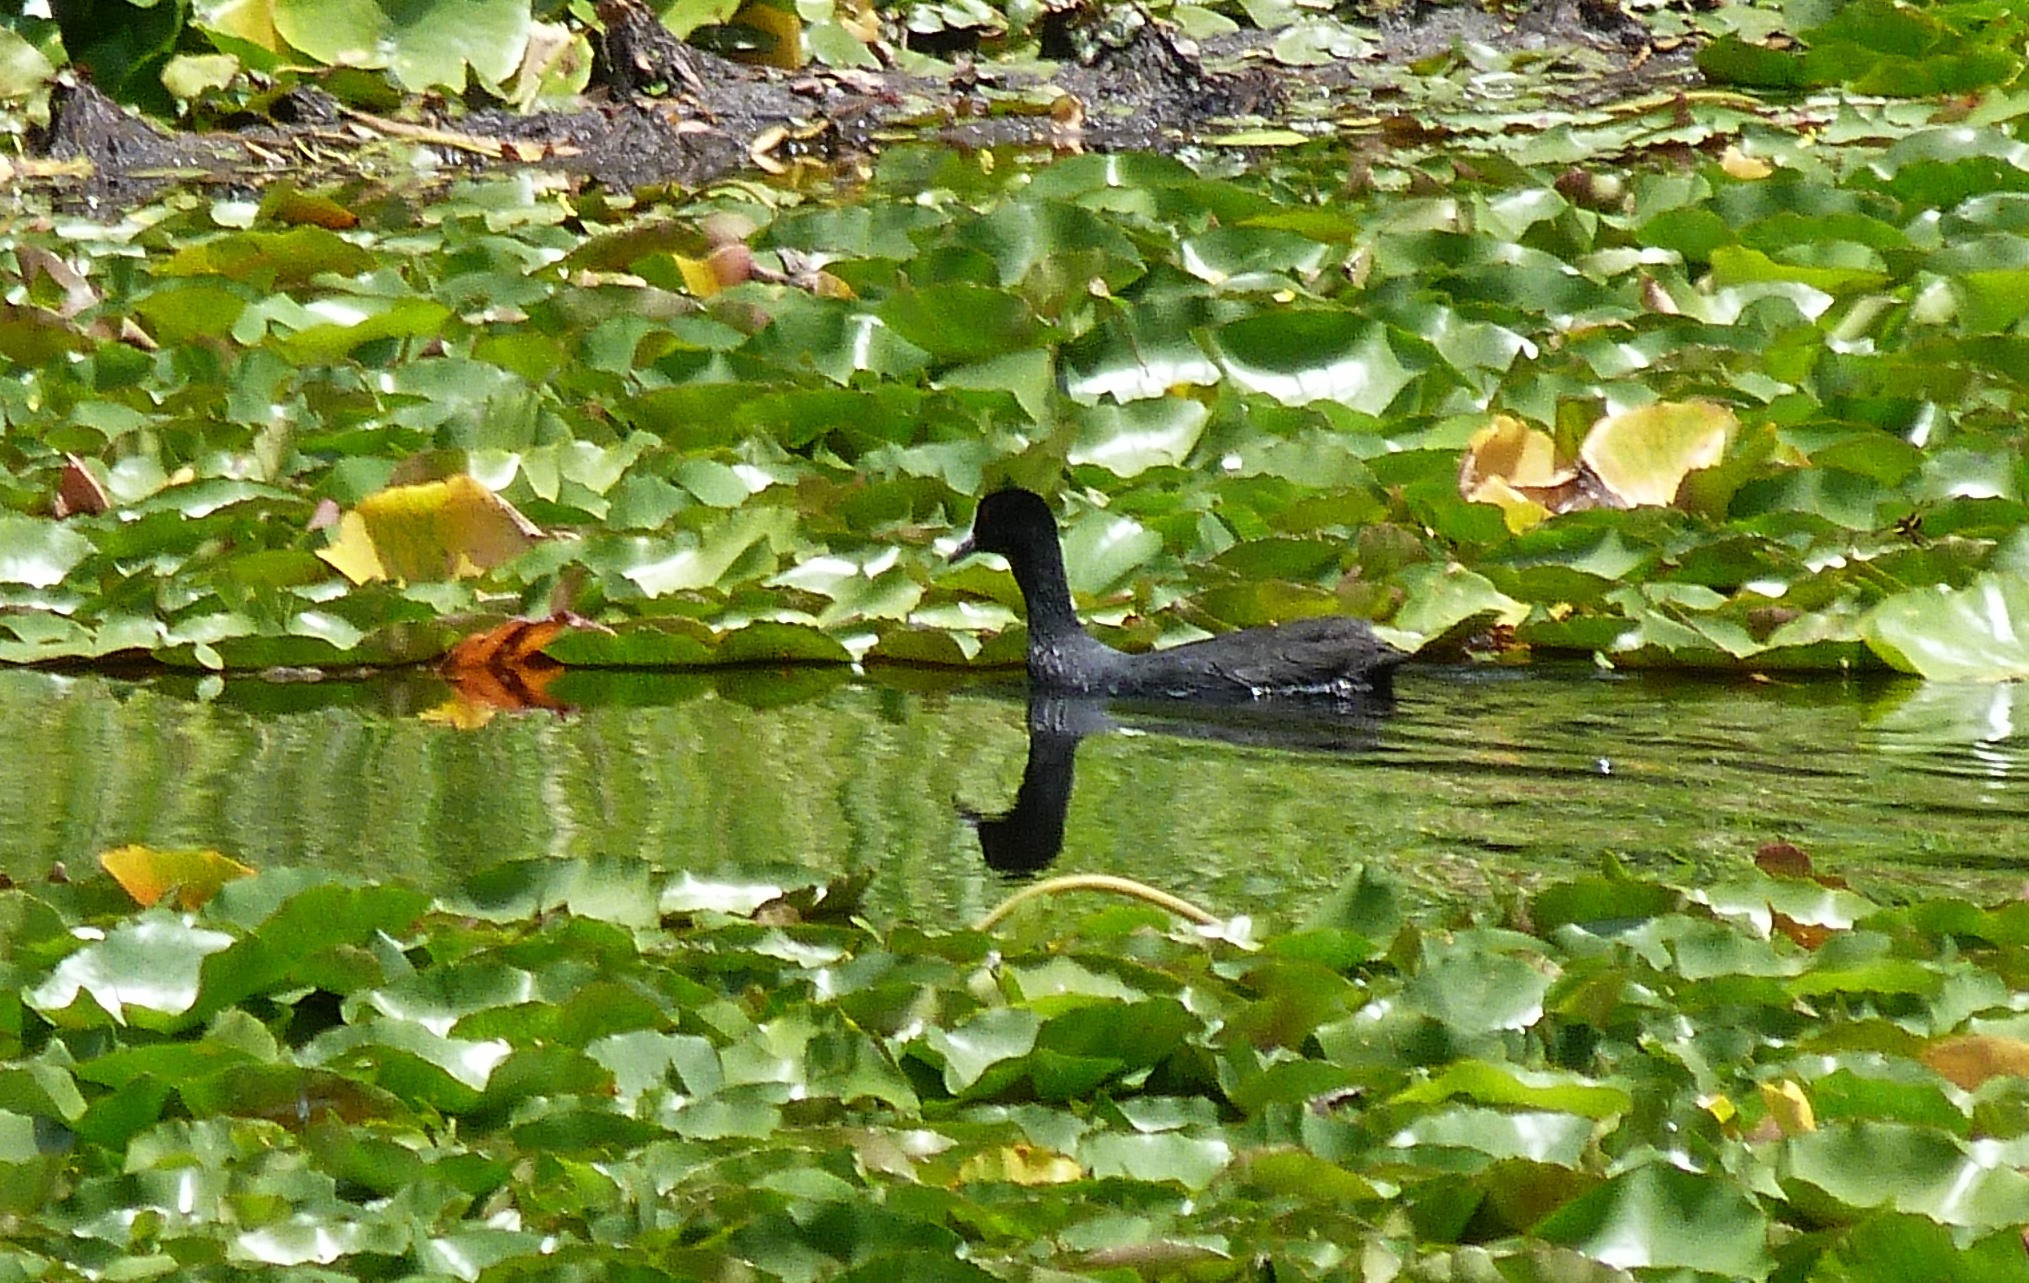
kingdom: Animalia
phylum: Chordata
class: Aves
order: Gruiformes
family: Rallidae
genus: Fulica
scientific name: Fulica atra
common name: Eurasian coot
